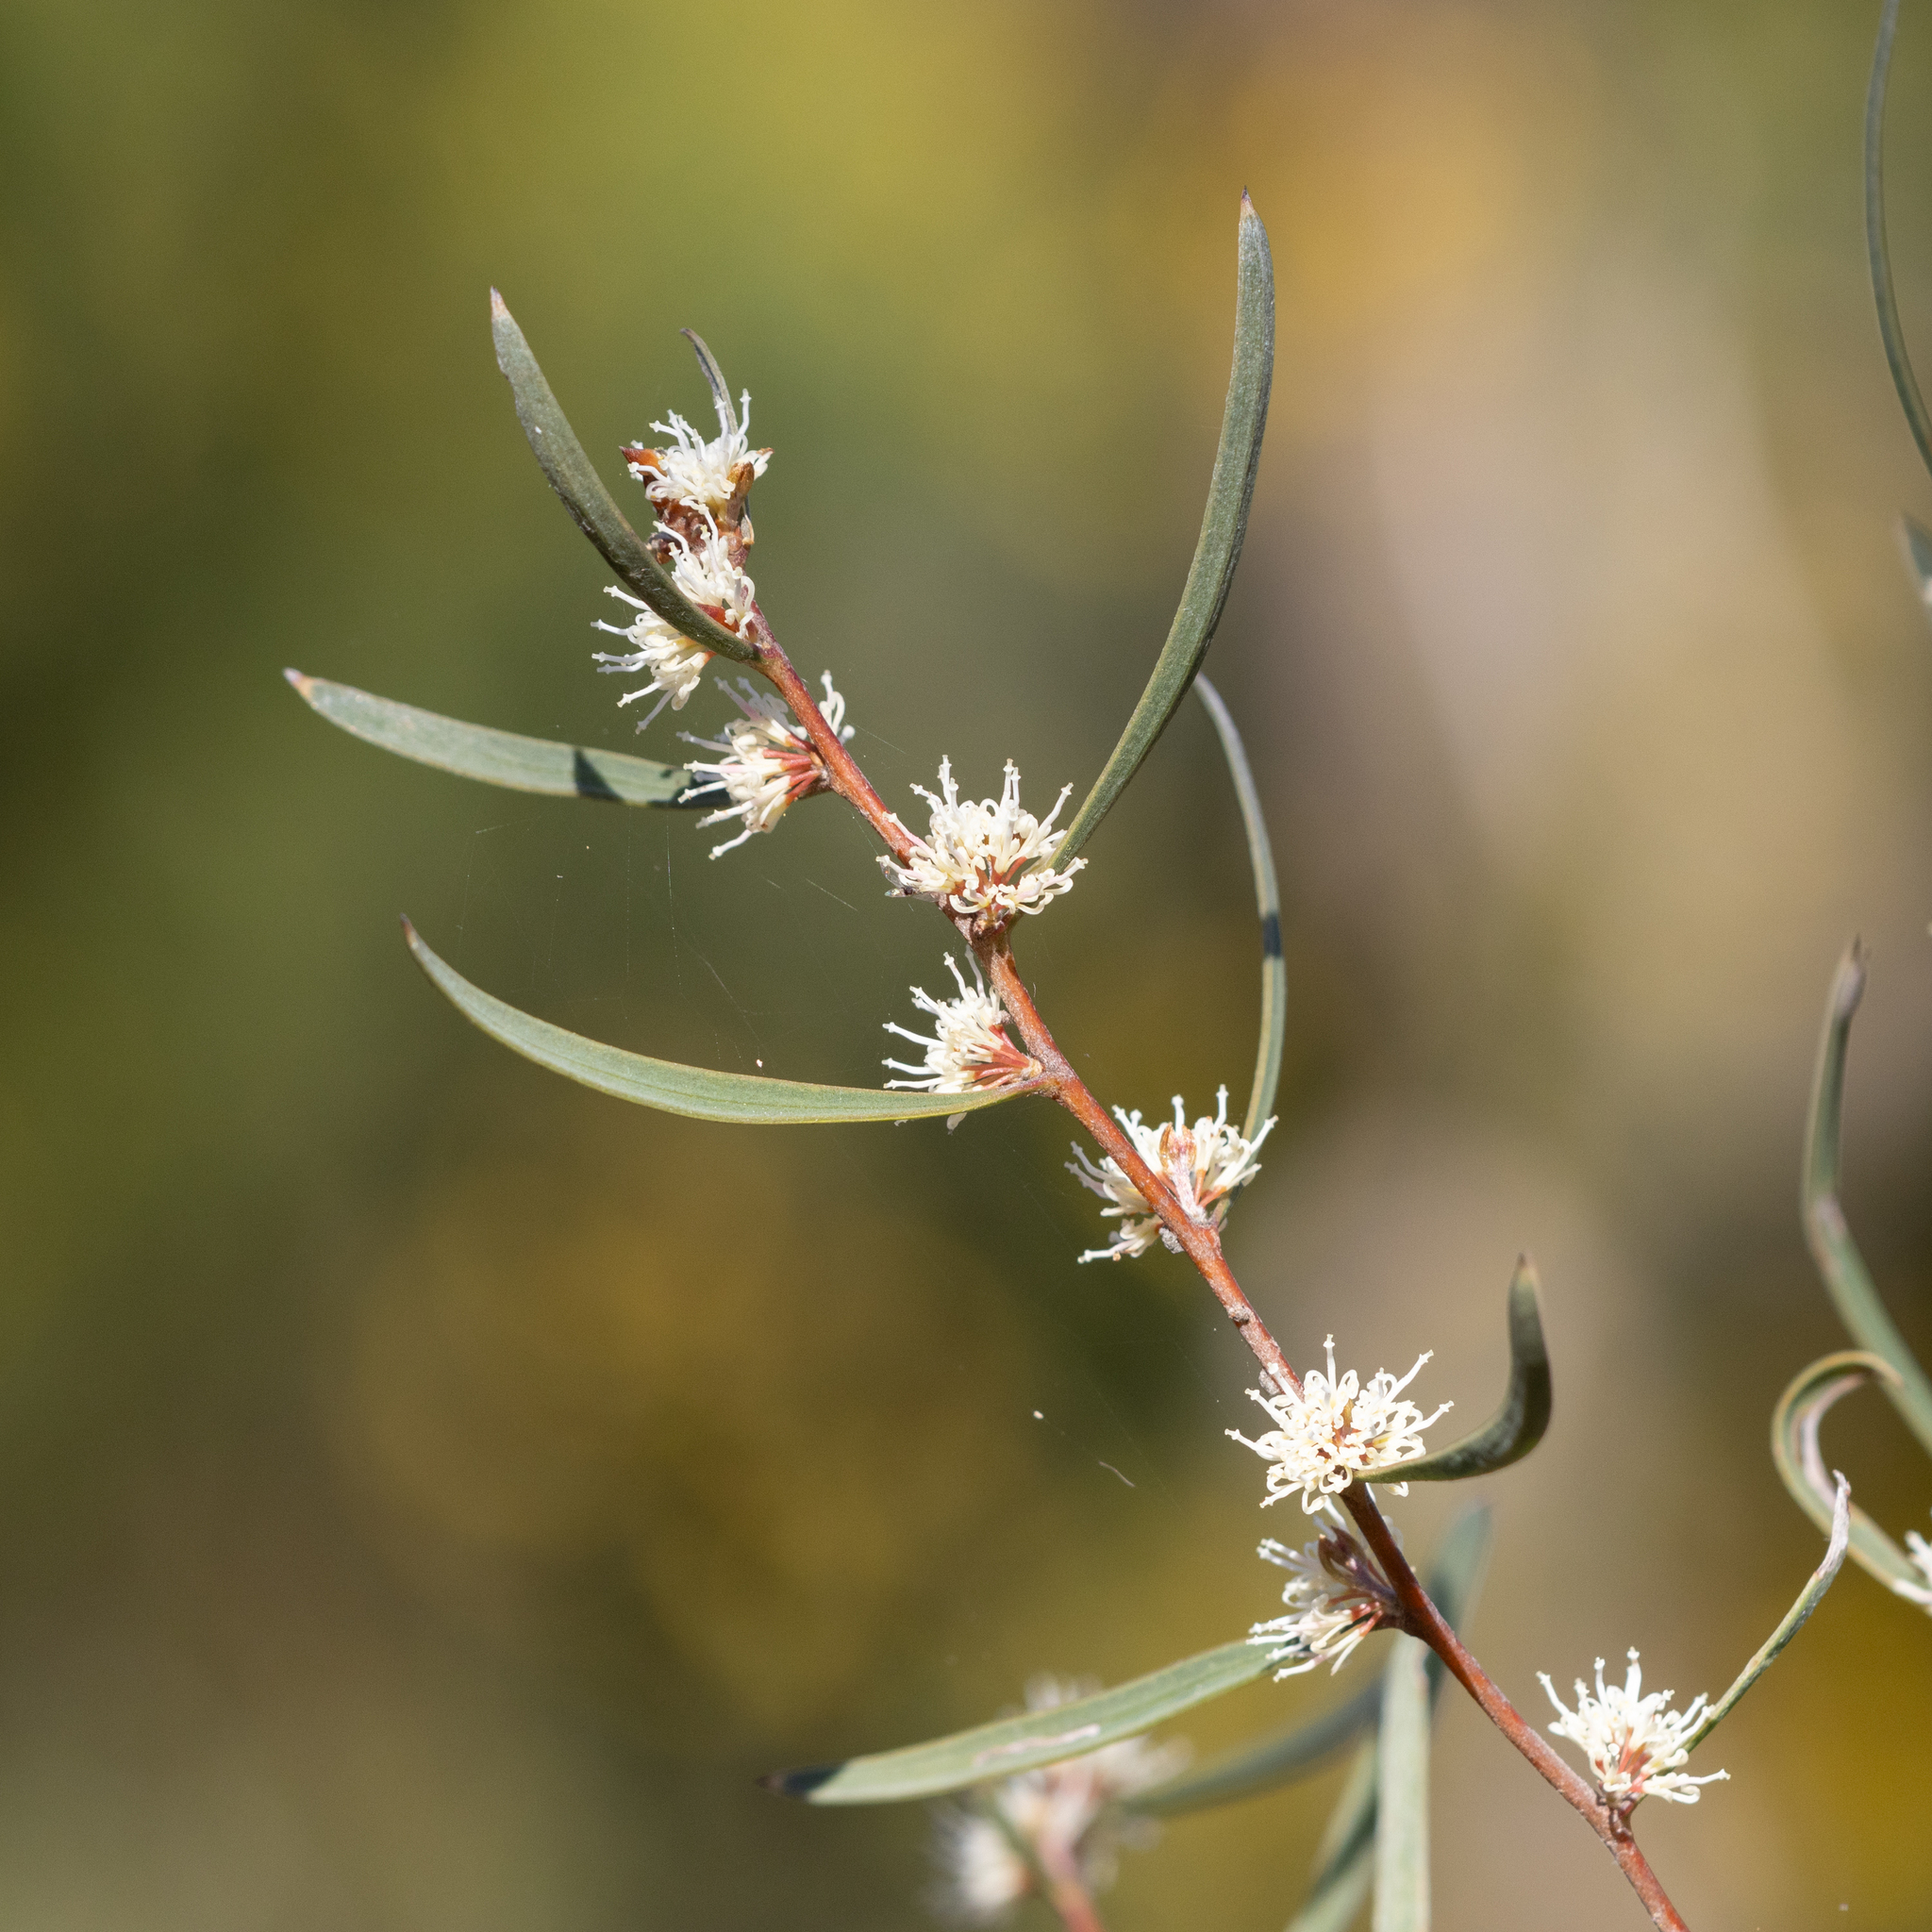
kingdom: Plantae
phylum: Tracheophyta
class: Magnoliopsida
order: Proteales
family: Proteaceae
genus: Hakea
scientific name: Hakea carinata
